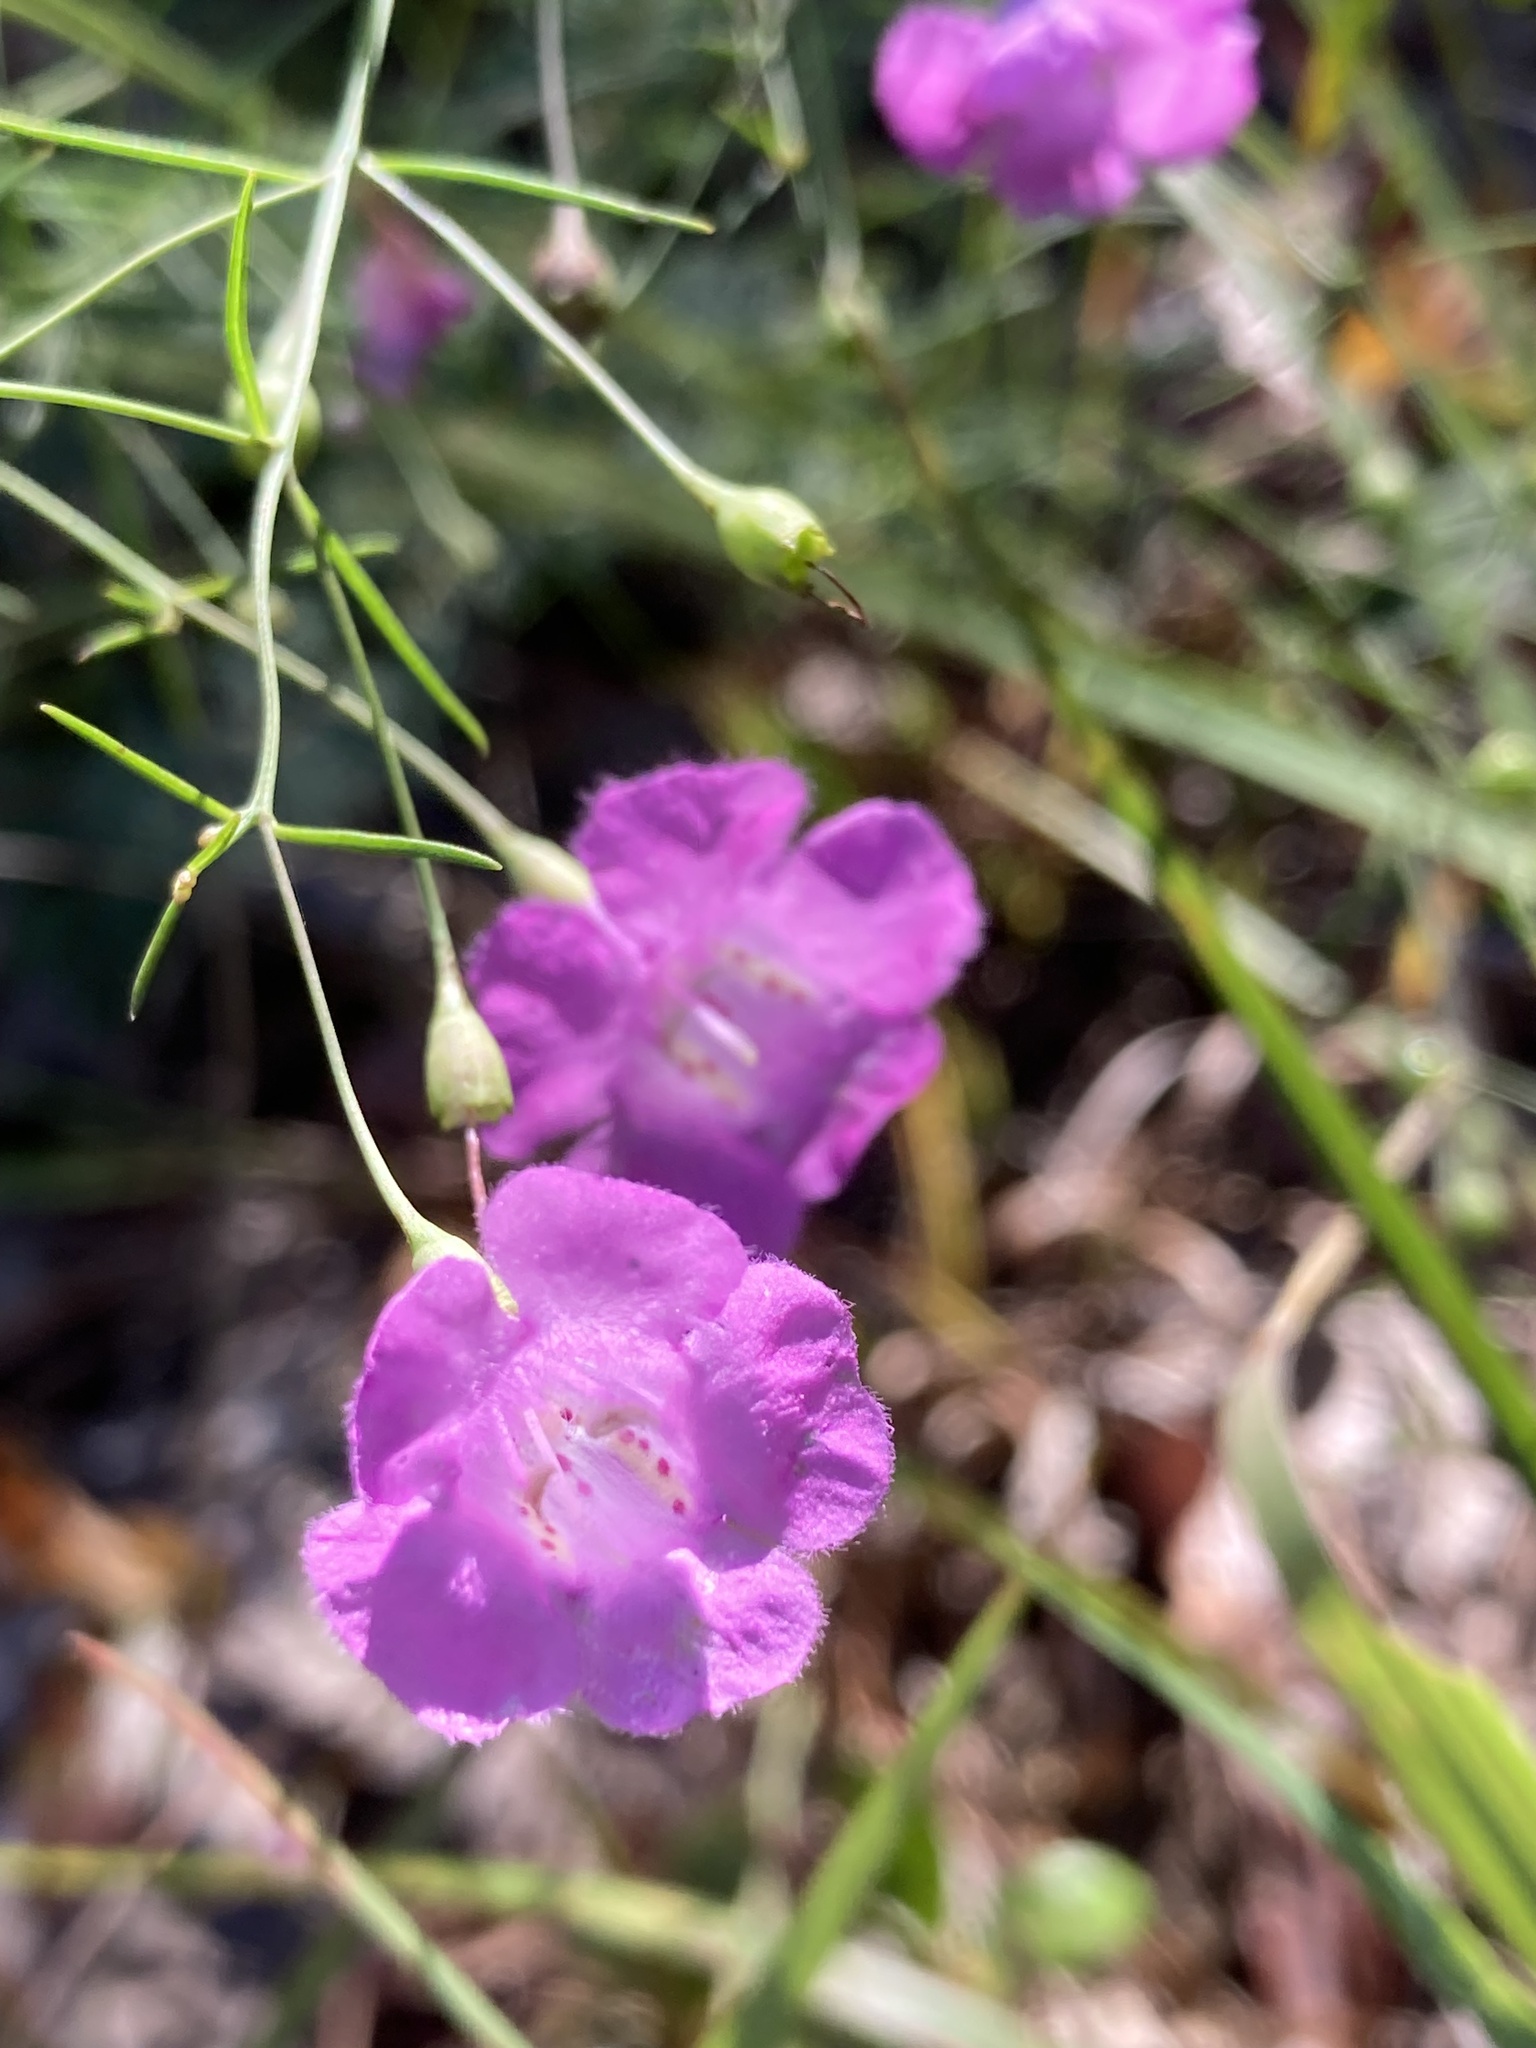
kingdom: Plantae
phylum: Tracheophyta
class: Magnoliopsida
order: Lamiales
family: Orobanchaceae
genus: Agalinis
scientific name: Agalinis setacea
